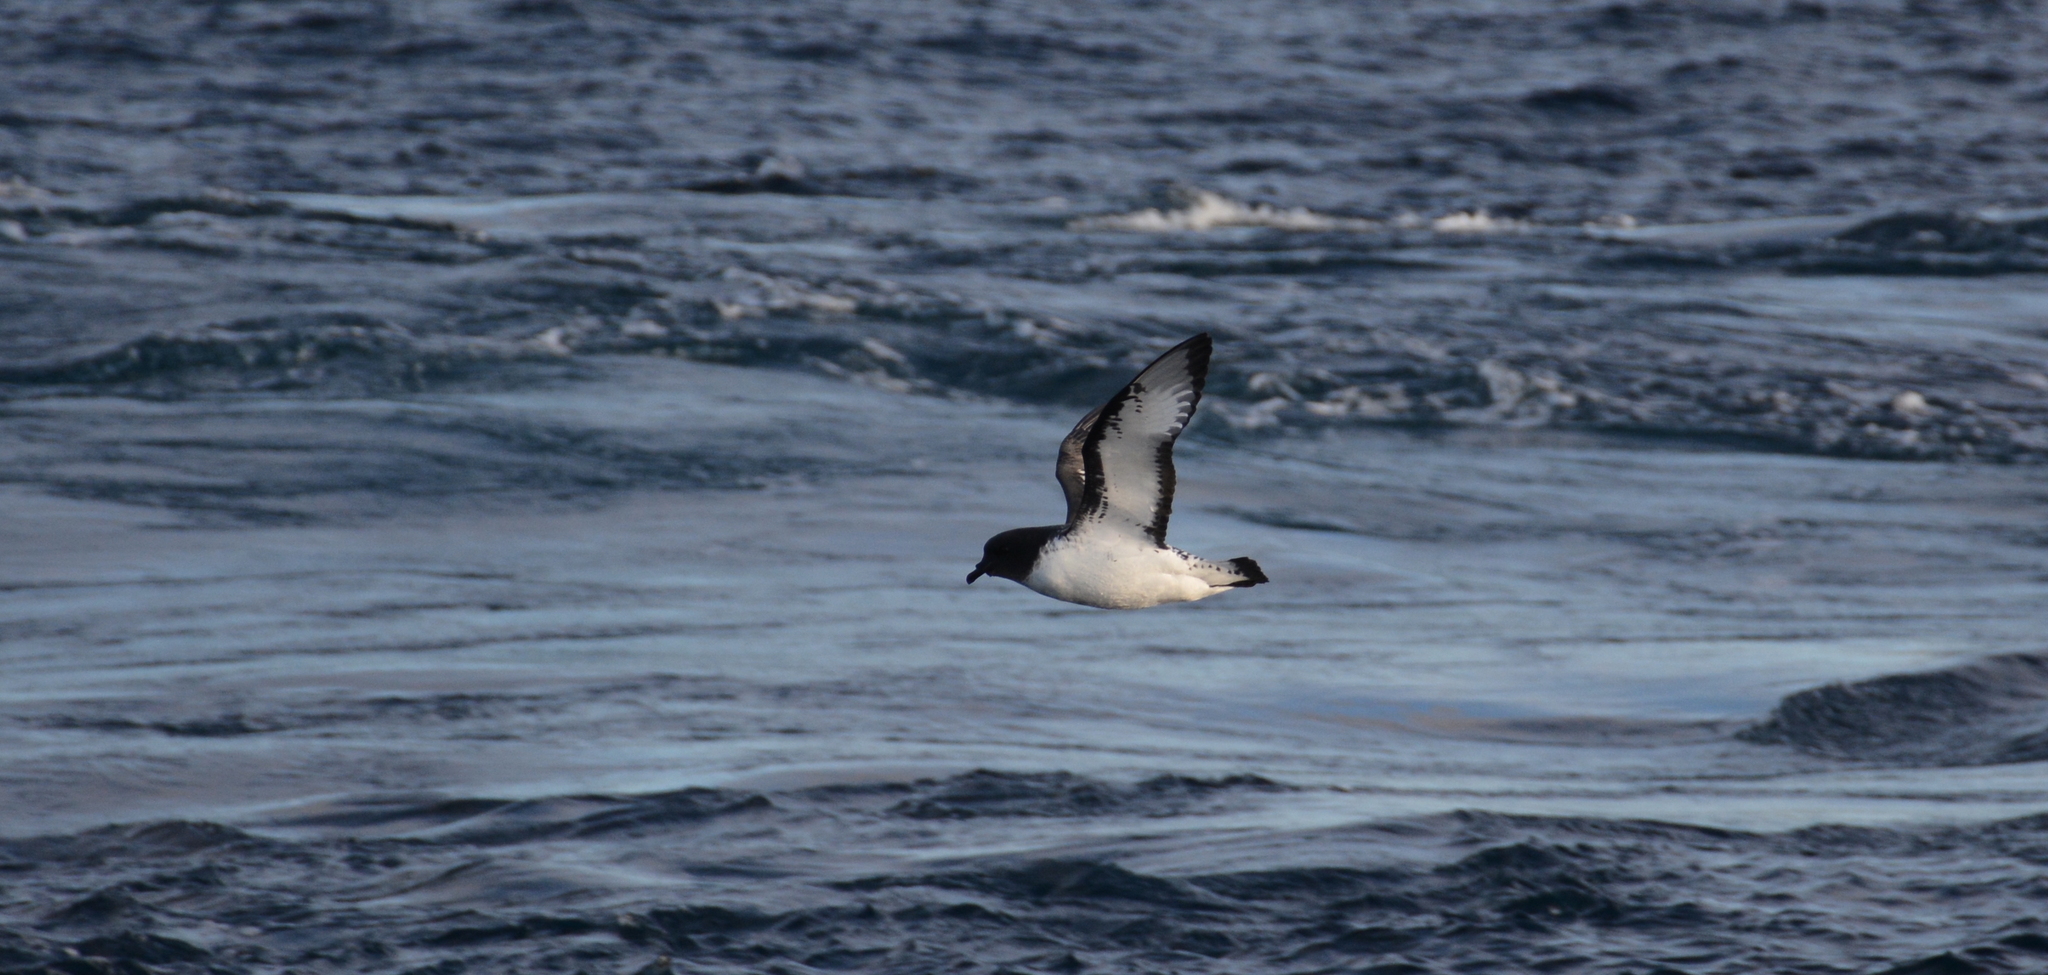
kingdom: Animalia
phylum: Chordata
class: Aves
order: Procellariiformes
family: Procellariidae
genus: Daption
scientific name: Daption capense
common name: Cape petrel
